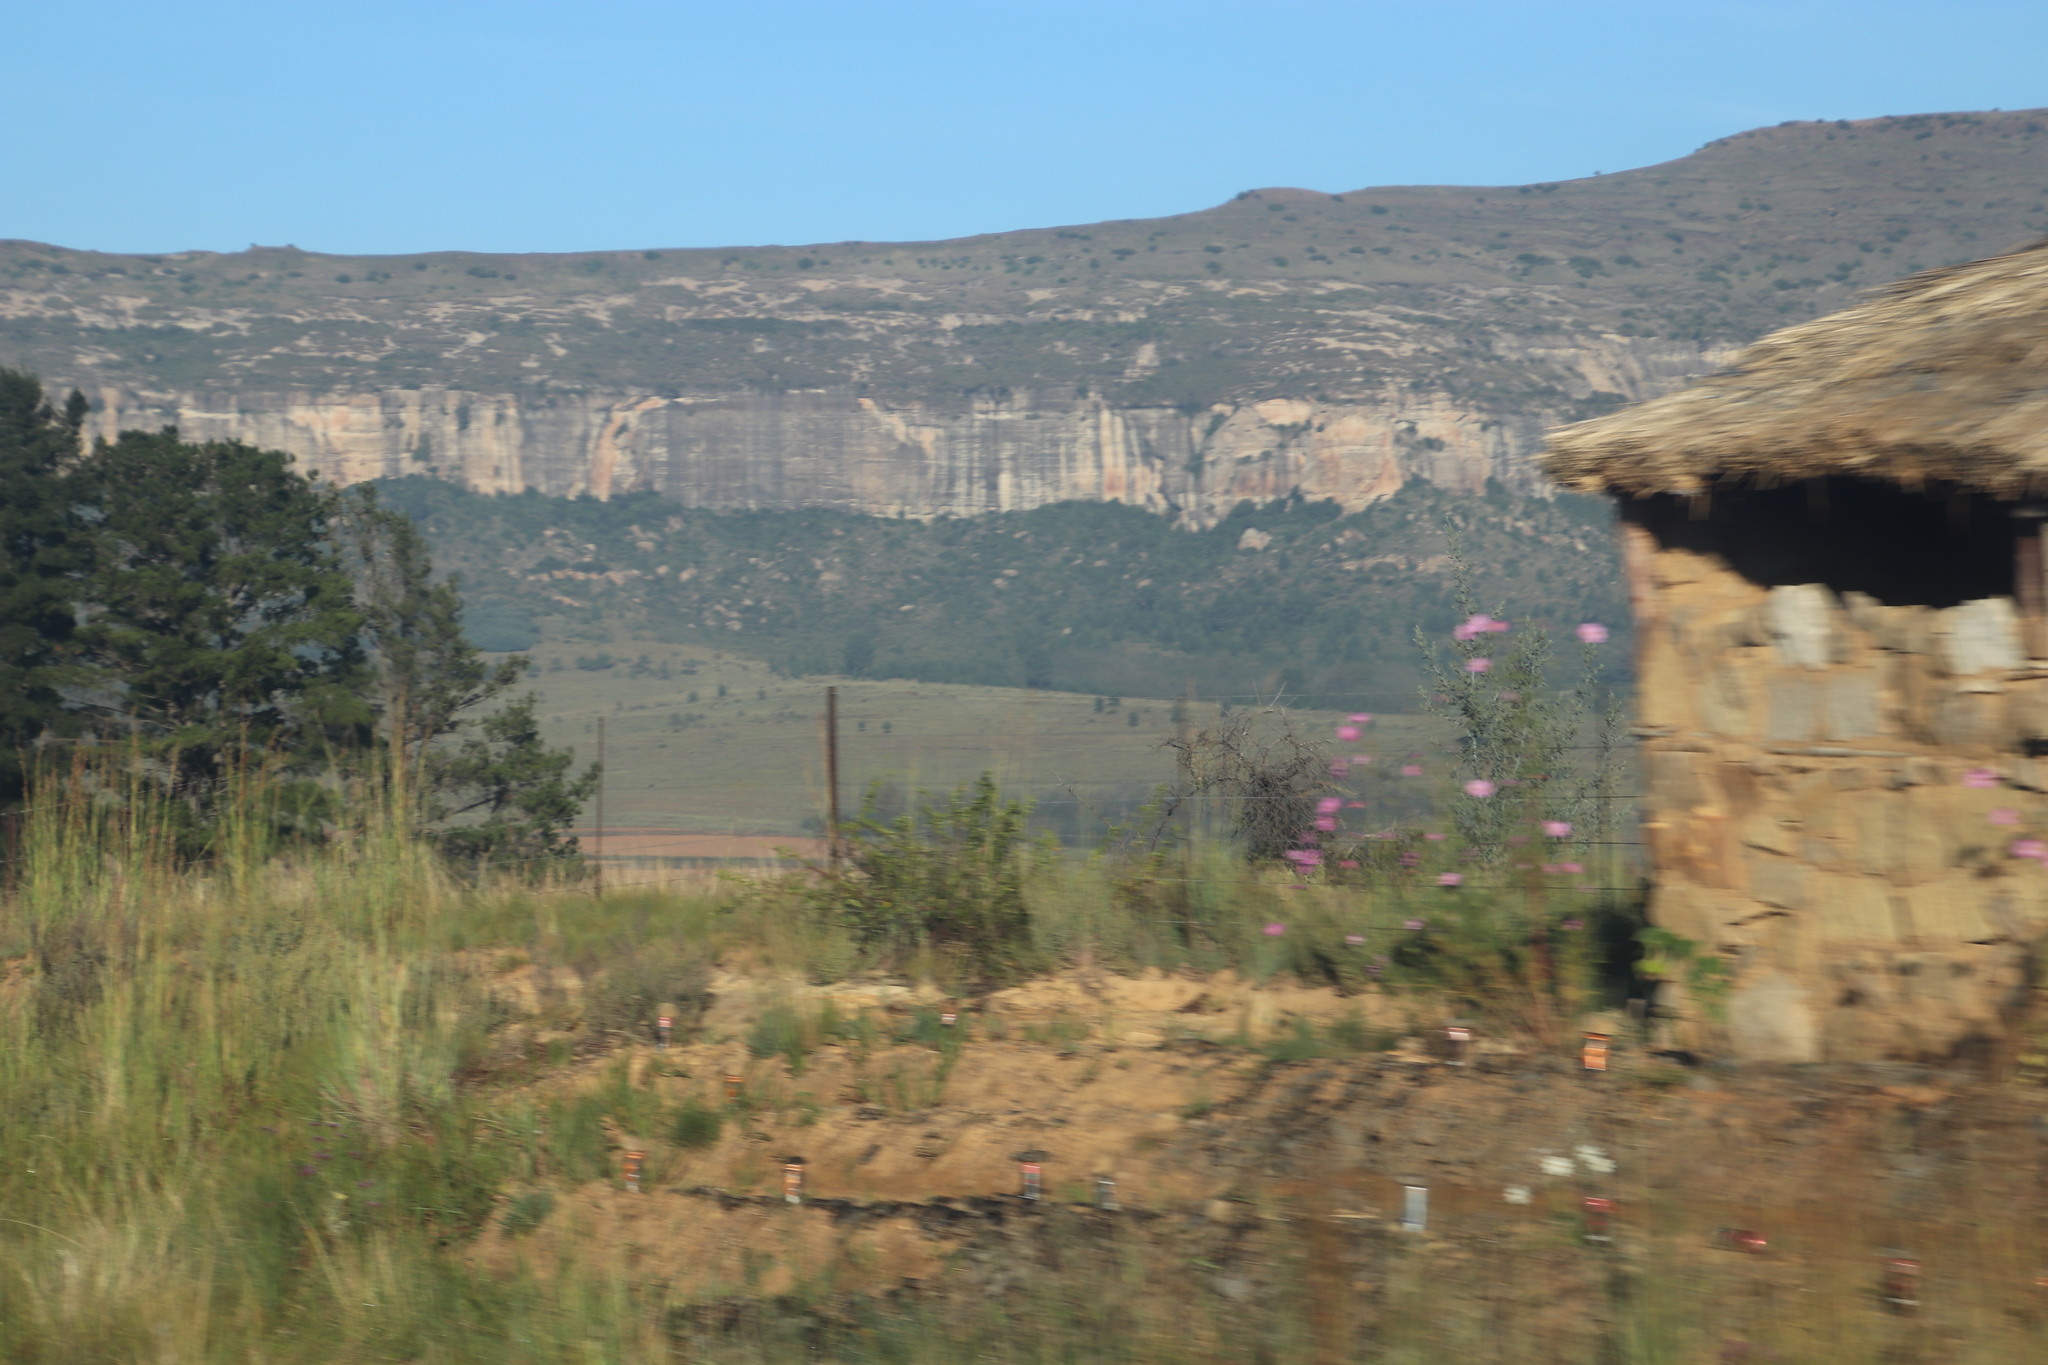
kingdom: Plantae
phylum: Tracheophyta
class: Magnoliopsida
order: Asterales
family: Asteraceae
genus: Cosmos
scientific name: Cosmos bipinnatus
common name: Garden cosmos
